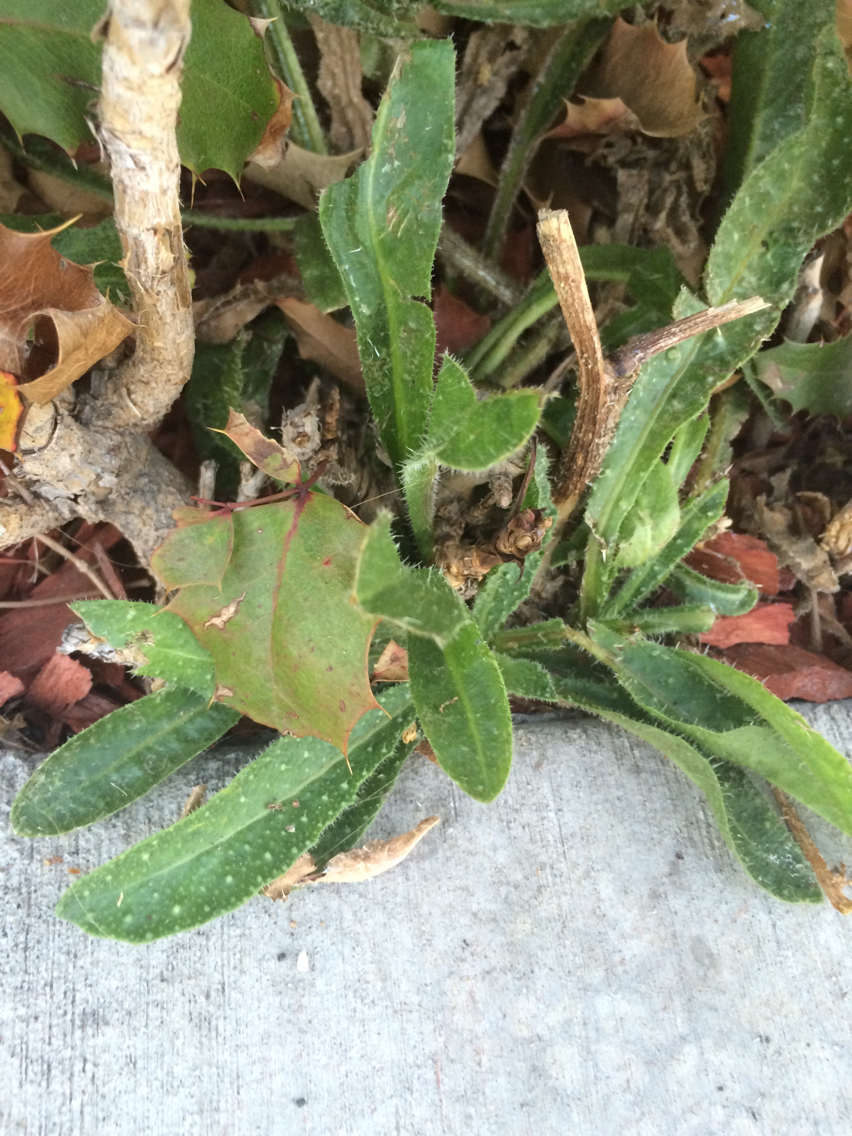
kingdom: Plantae
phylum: Tracheophyta
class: Magnoliopsida
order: Asterales
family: Asteraceae
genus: Helminthotheca
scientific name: Helminthotheca echioides
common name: Ox-tongue
